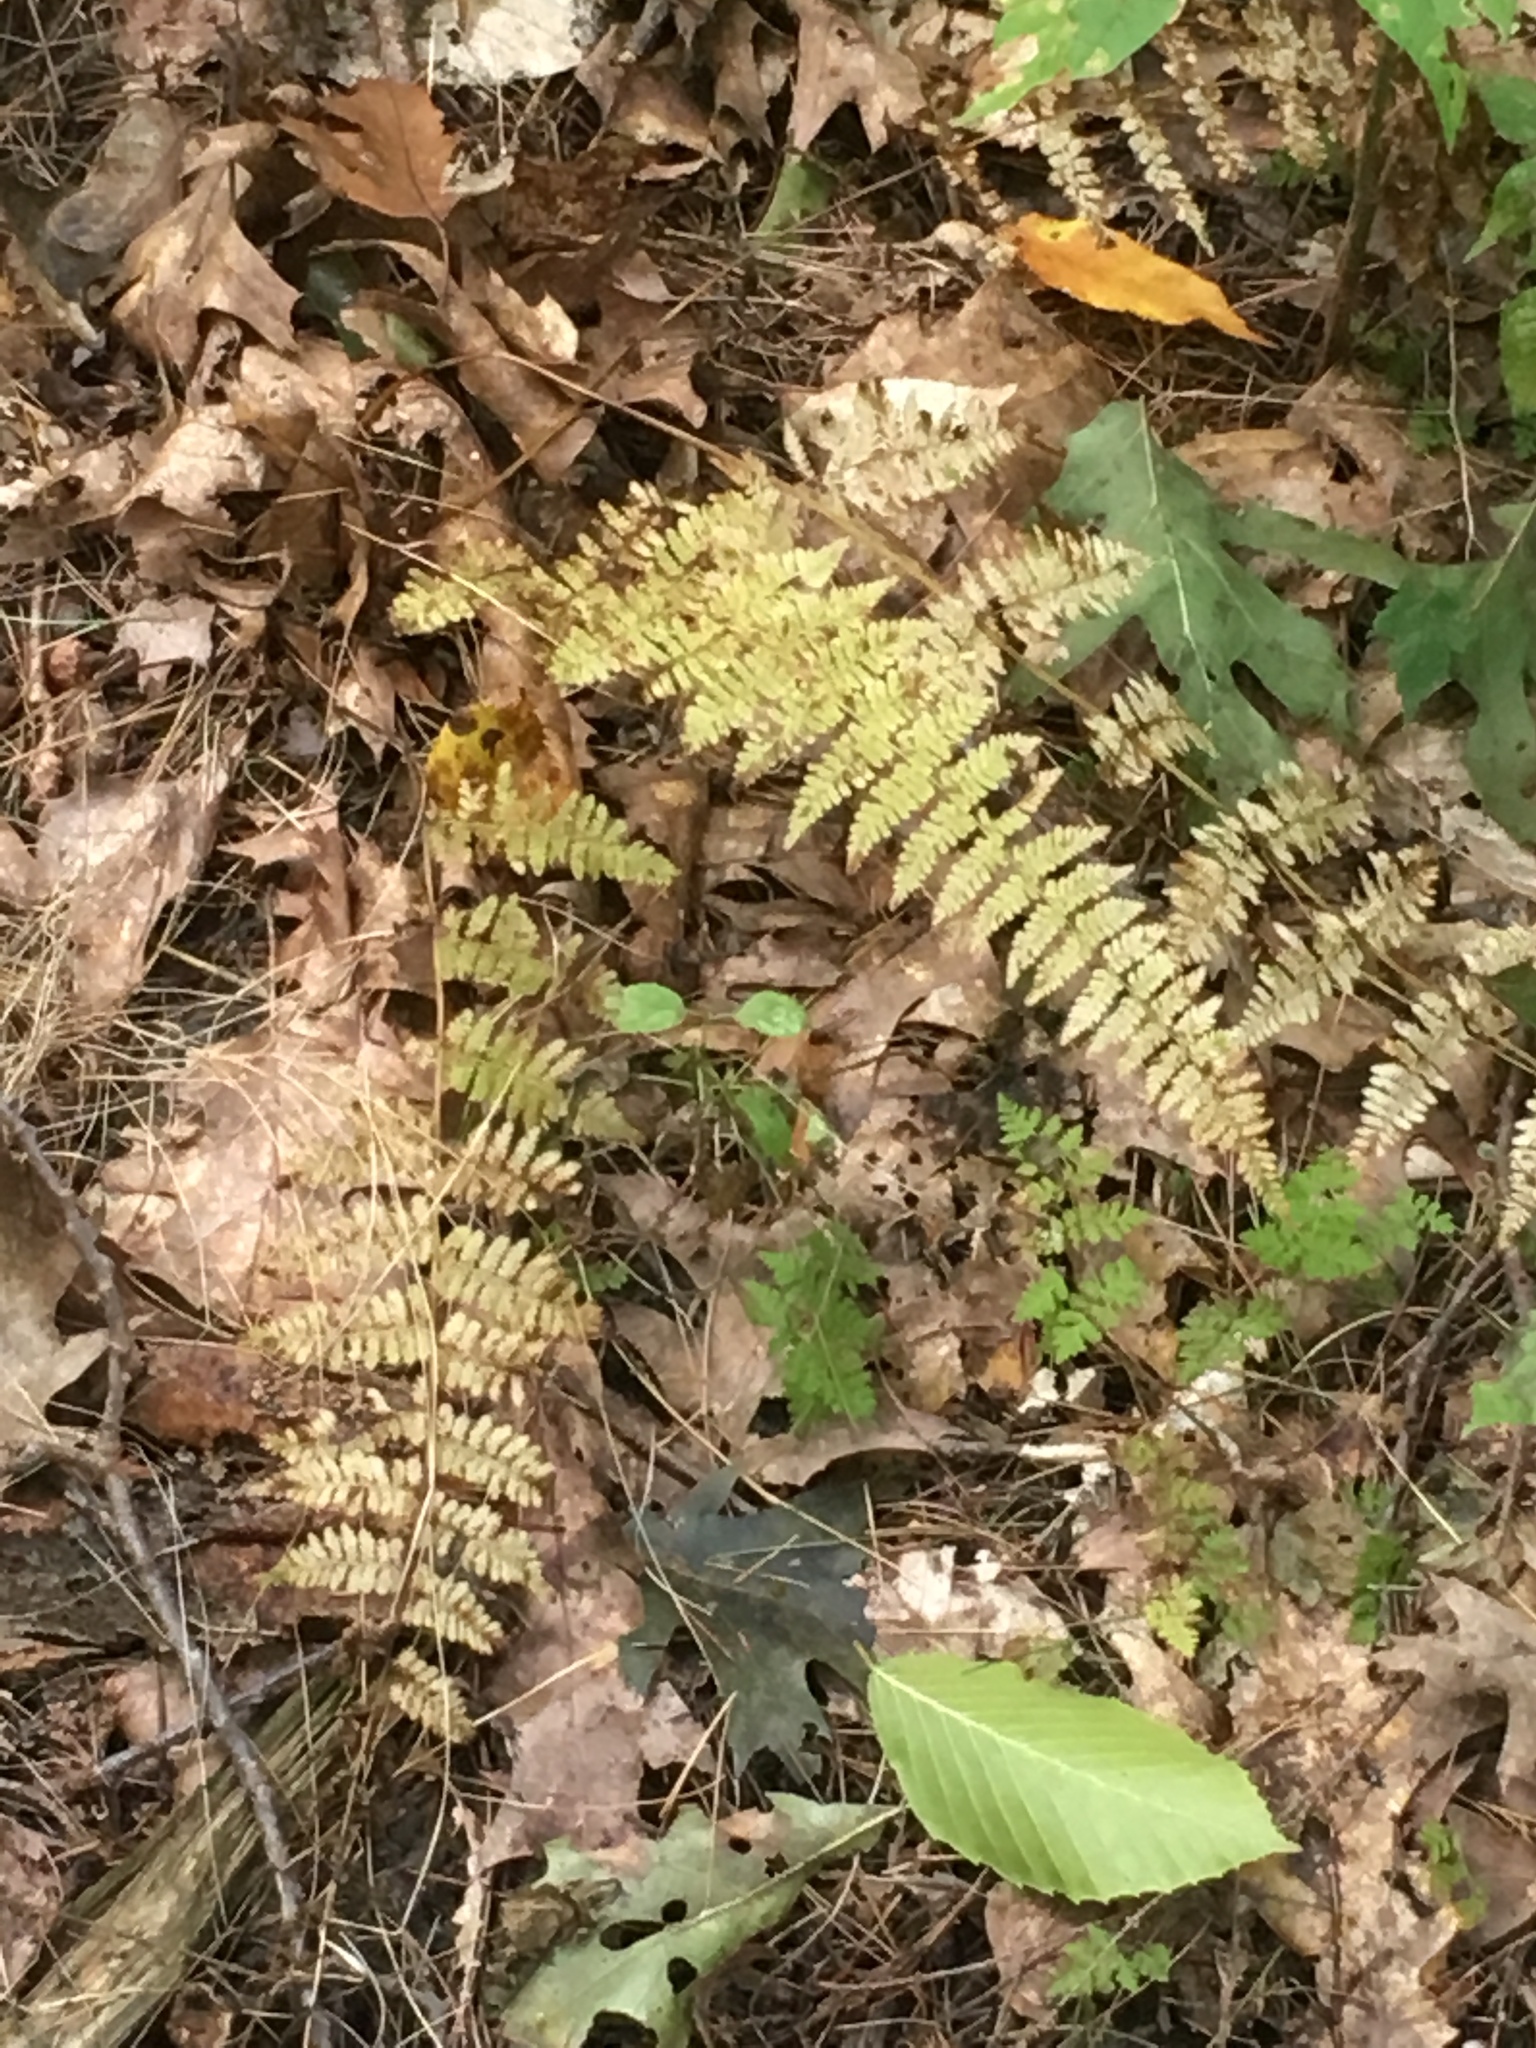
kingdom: Plantae
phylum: Tracheophyta
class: Polypodiopsida
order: Polypodiales
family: Cystopteridaceae
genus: Cystopteris
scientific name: Cystopteris bulbifera
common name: Bulblet bladder fern
